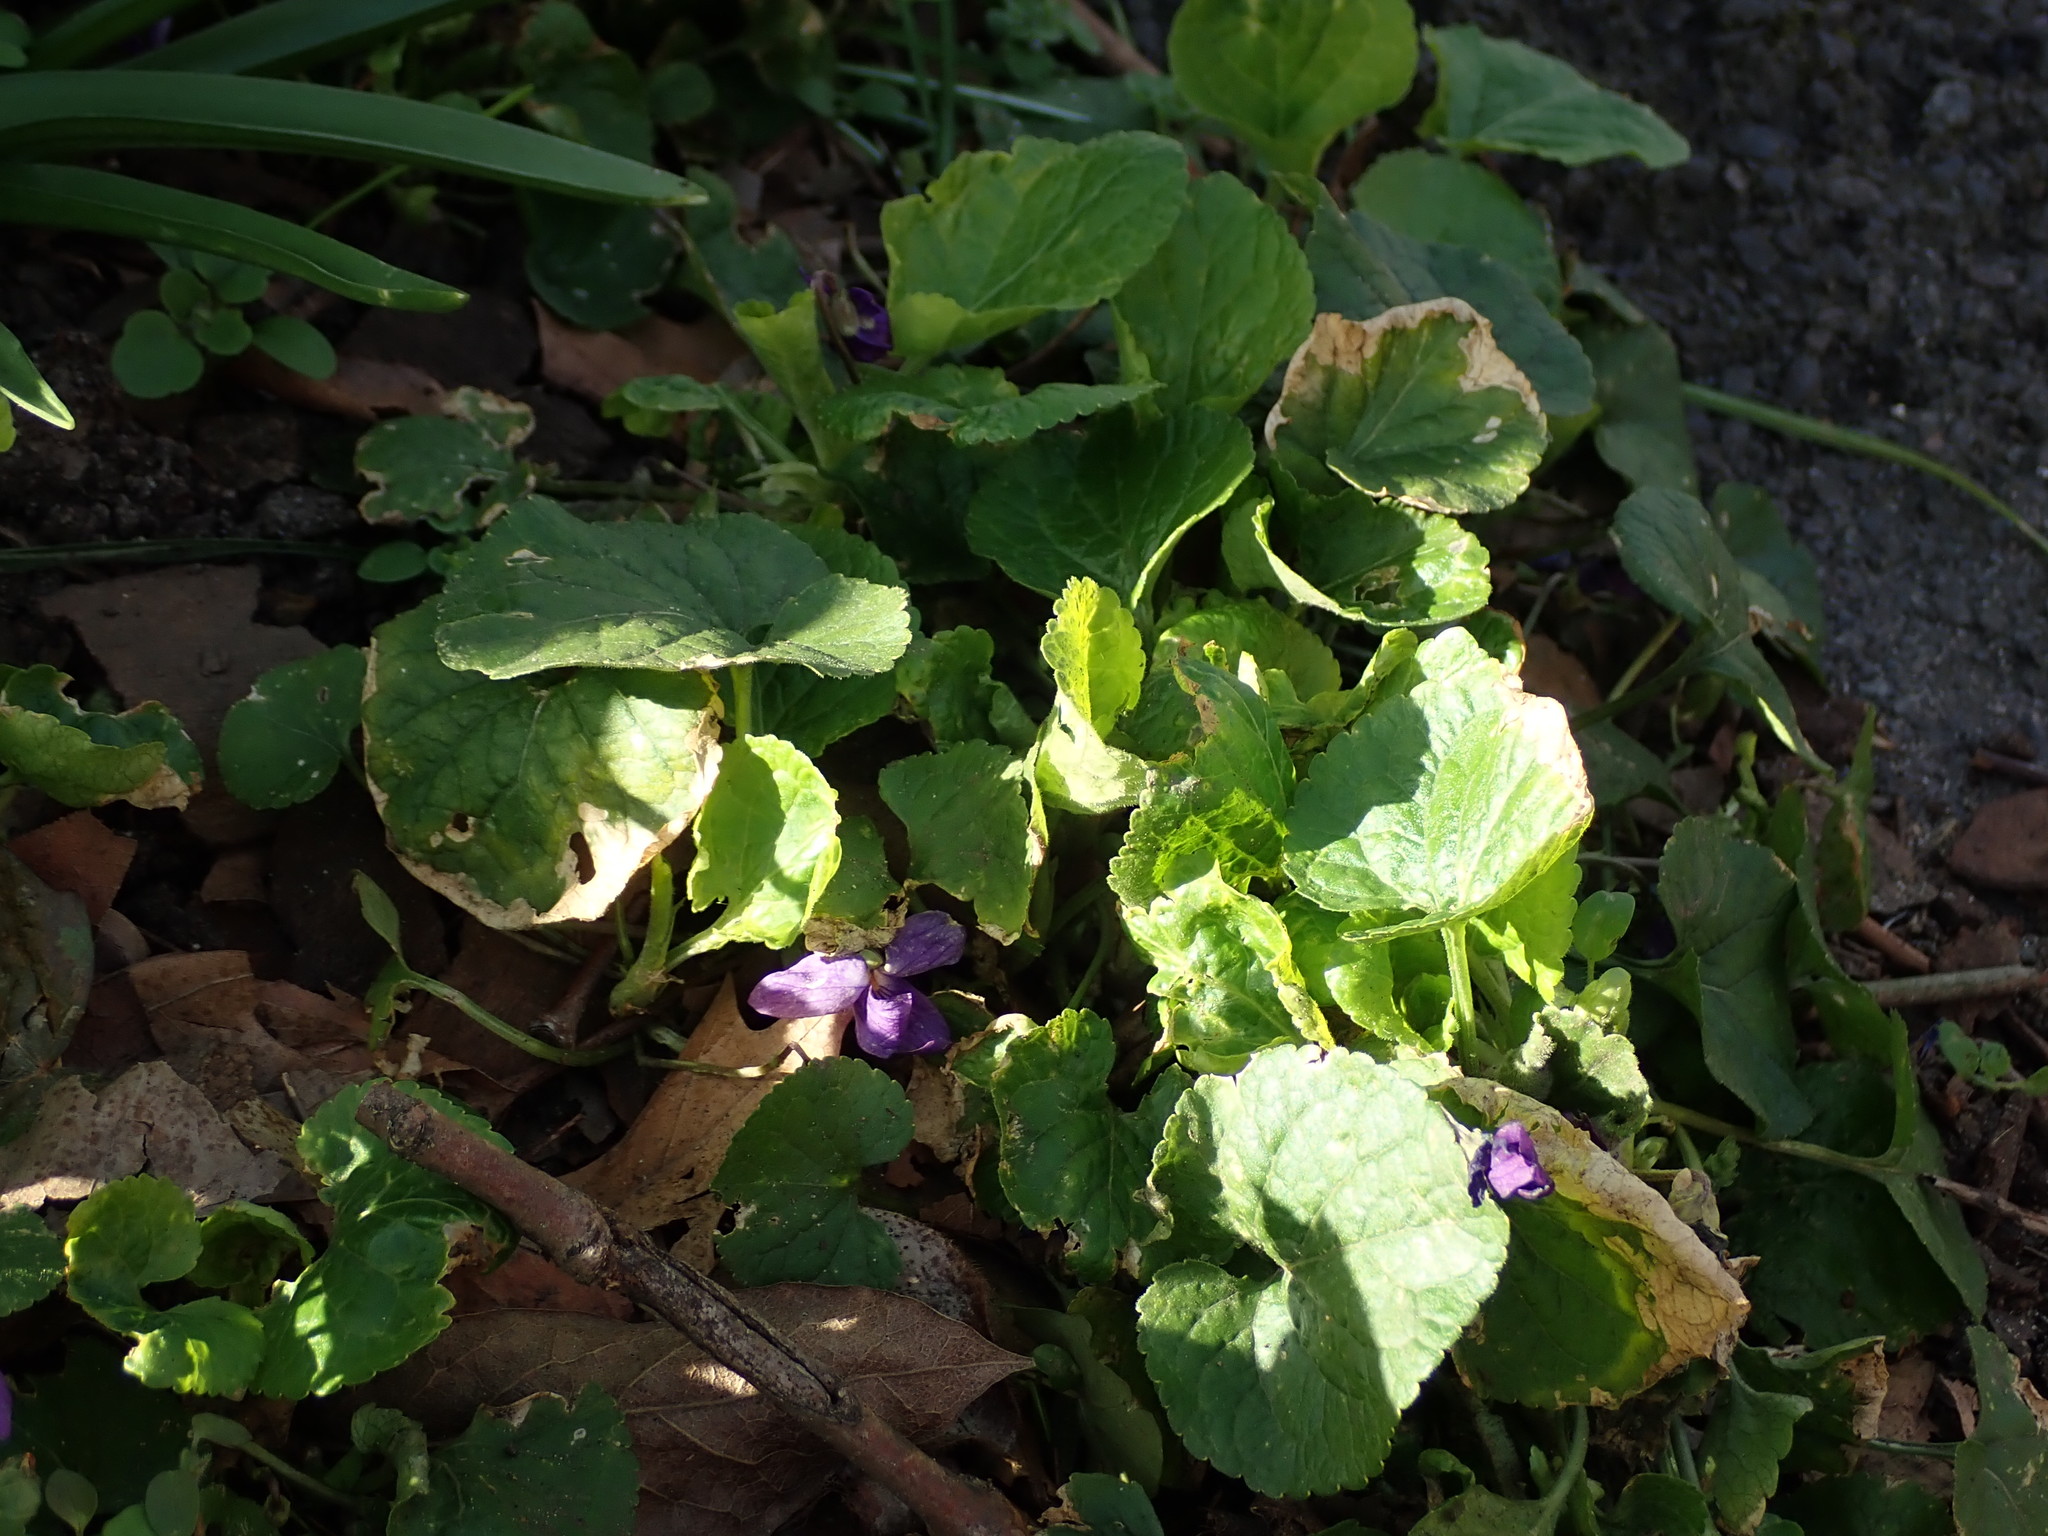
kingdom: Plantae
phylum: Tracheophyta
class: Magnoliopsida
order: Malpighiales
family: Violaceae
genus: Viola
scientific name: Viola odorata
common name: Sweet violet
